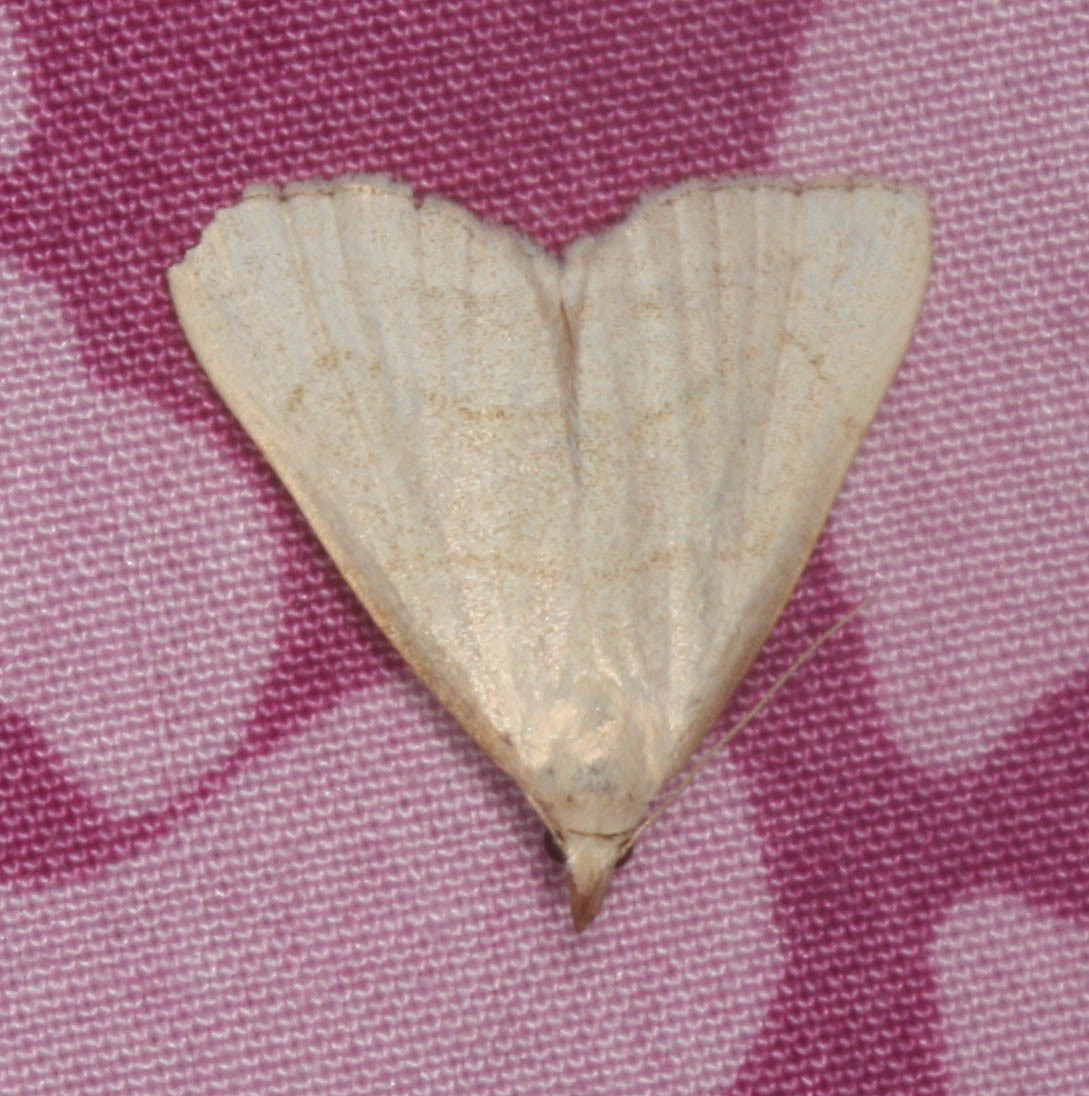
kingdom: Animalia
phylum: Arthropoda
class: Insecta
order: Lepidoptera
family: Erebidae
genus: Macrochilo
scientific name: Macrochilo litophora
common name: Brown-lined owlet
